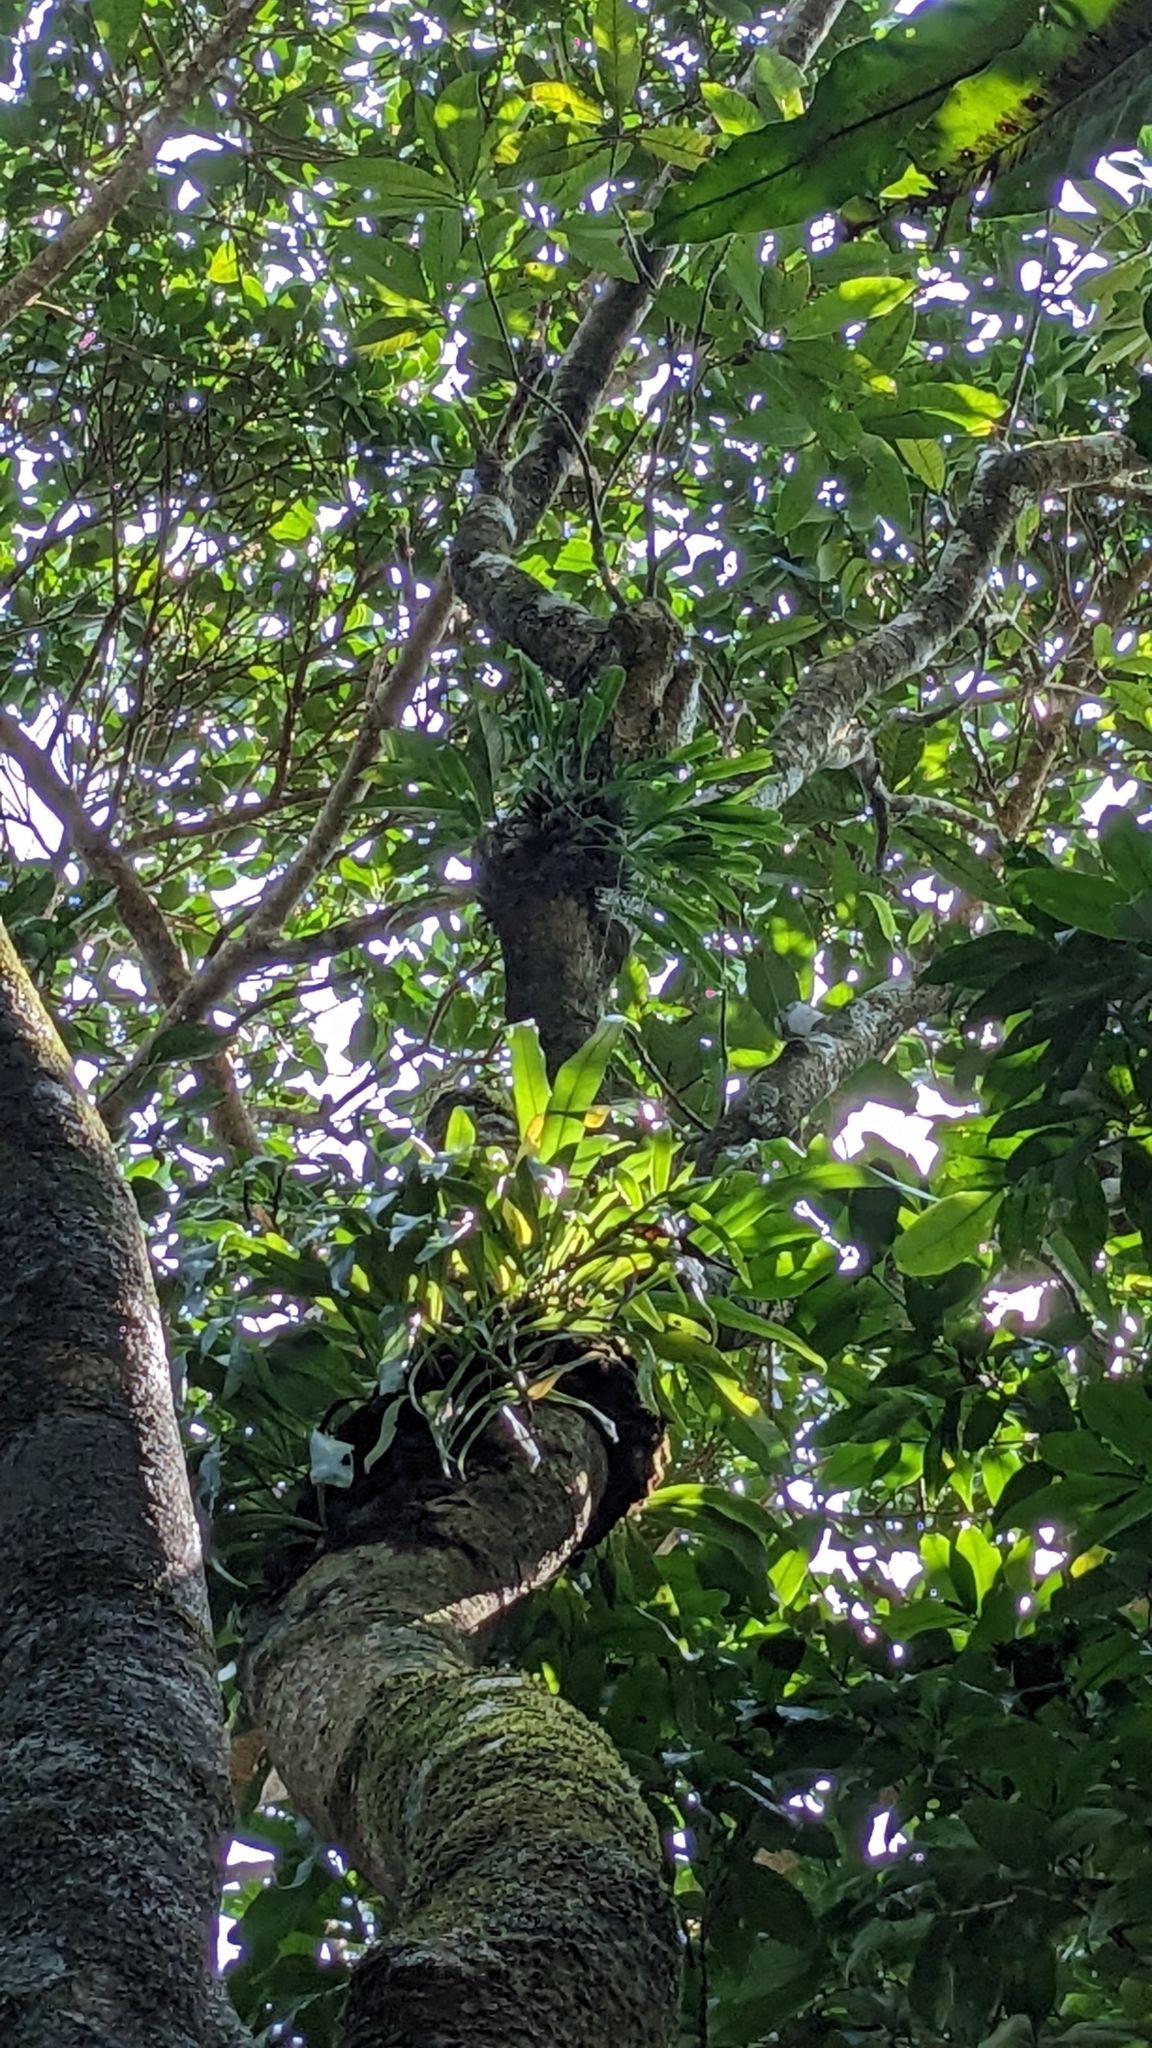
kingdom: Plantae
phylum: Tracheophyta
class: Liliopsida
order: Asparagales
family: Orchidaceae
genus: Dendrobium
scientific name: Dendrobium goldschmidtianum
